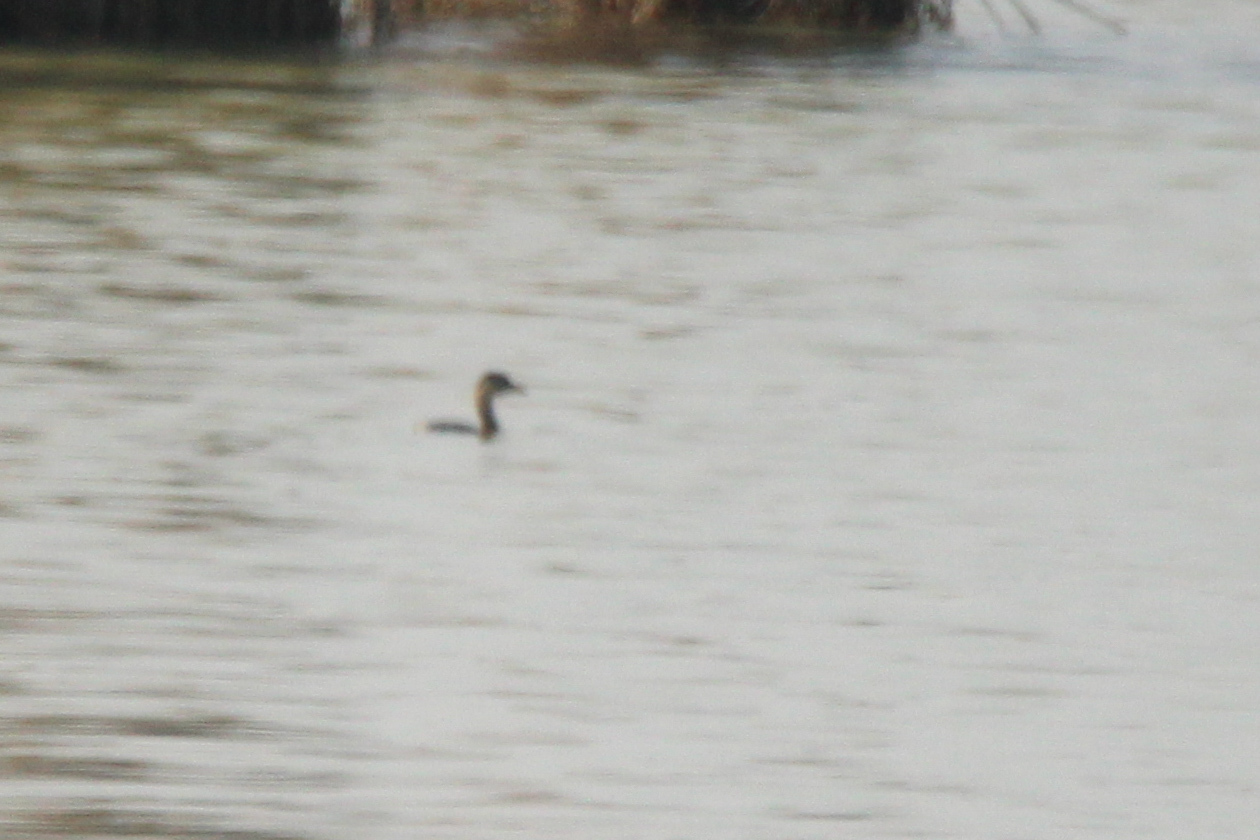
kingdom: Animalia
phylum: Chordata
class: Aves
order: Podicipediformes
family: Podicipedidae
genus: Tachybaptus
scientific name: Tachybaptus ruficollis
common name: Little grebe
